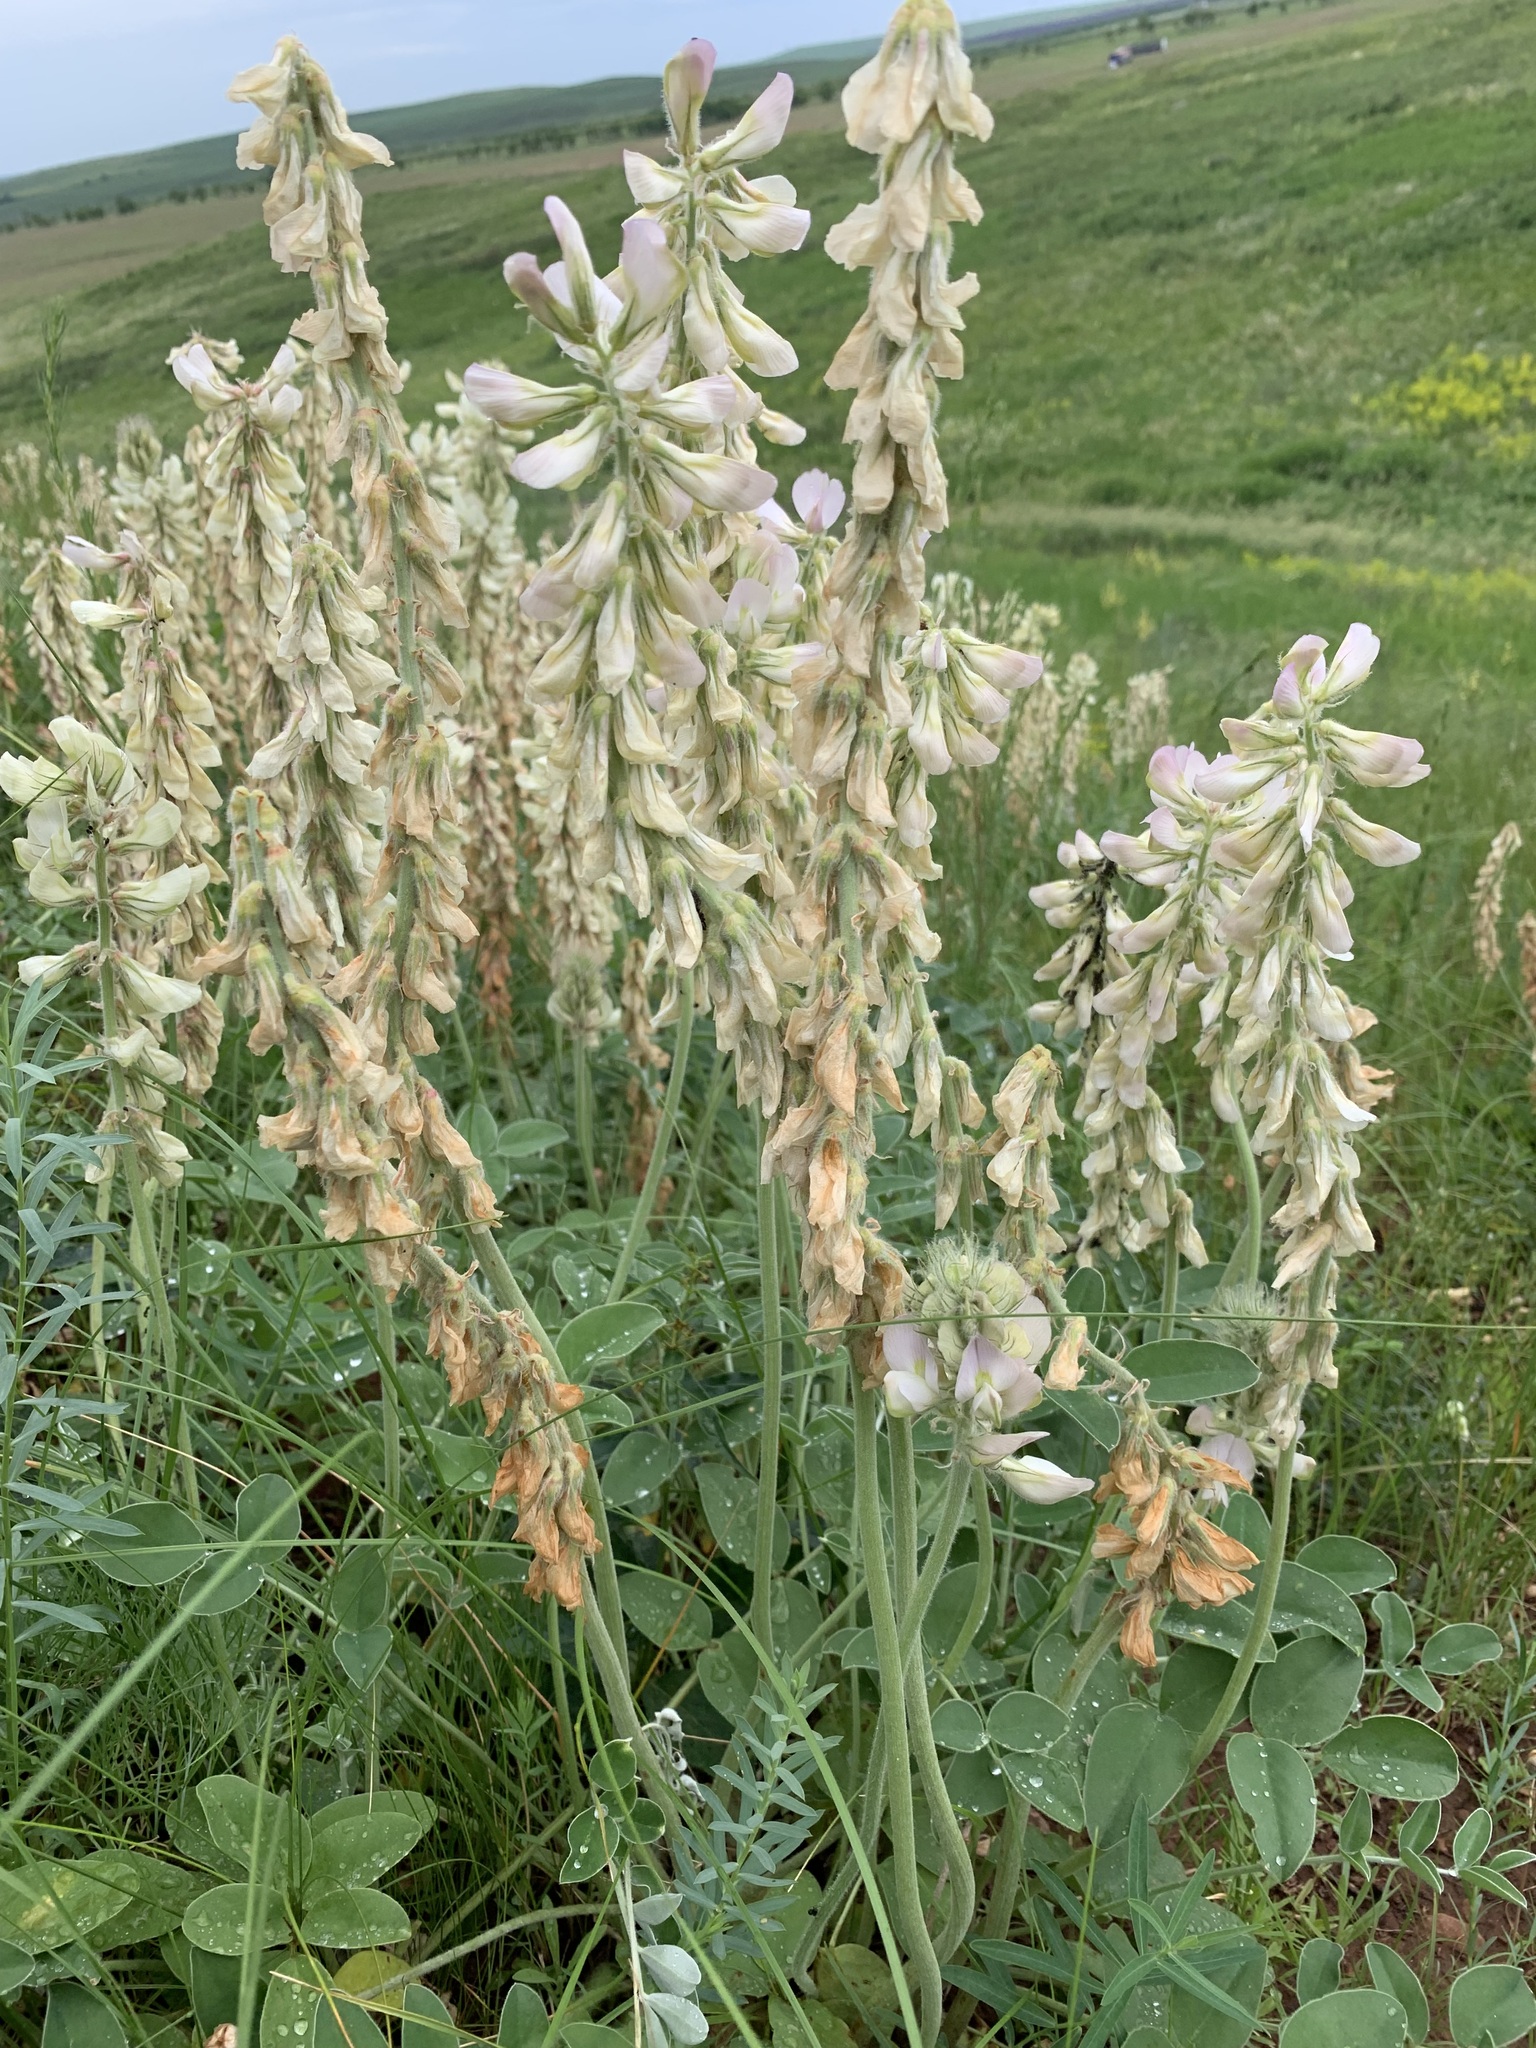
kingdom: Plantae
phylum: Tracheophyta
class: Magnoliopsida
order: Fabales
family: Fabaceae
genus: Hedysarum
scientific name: Hedysarum grandiflorum
